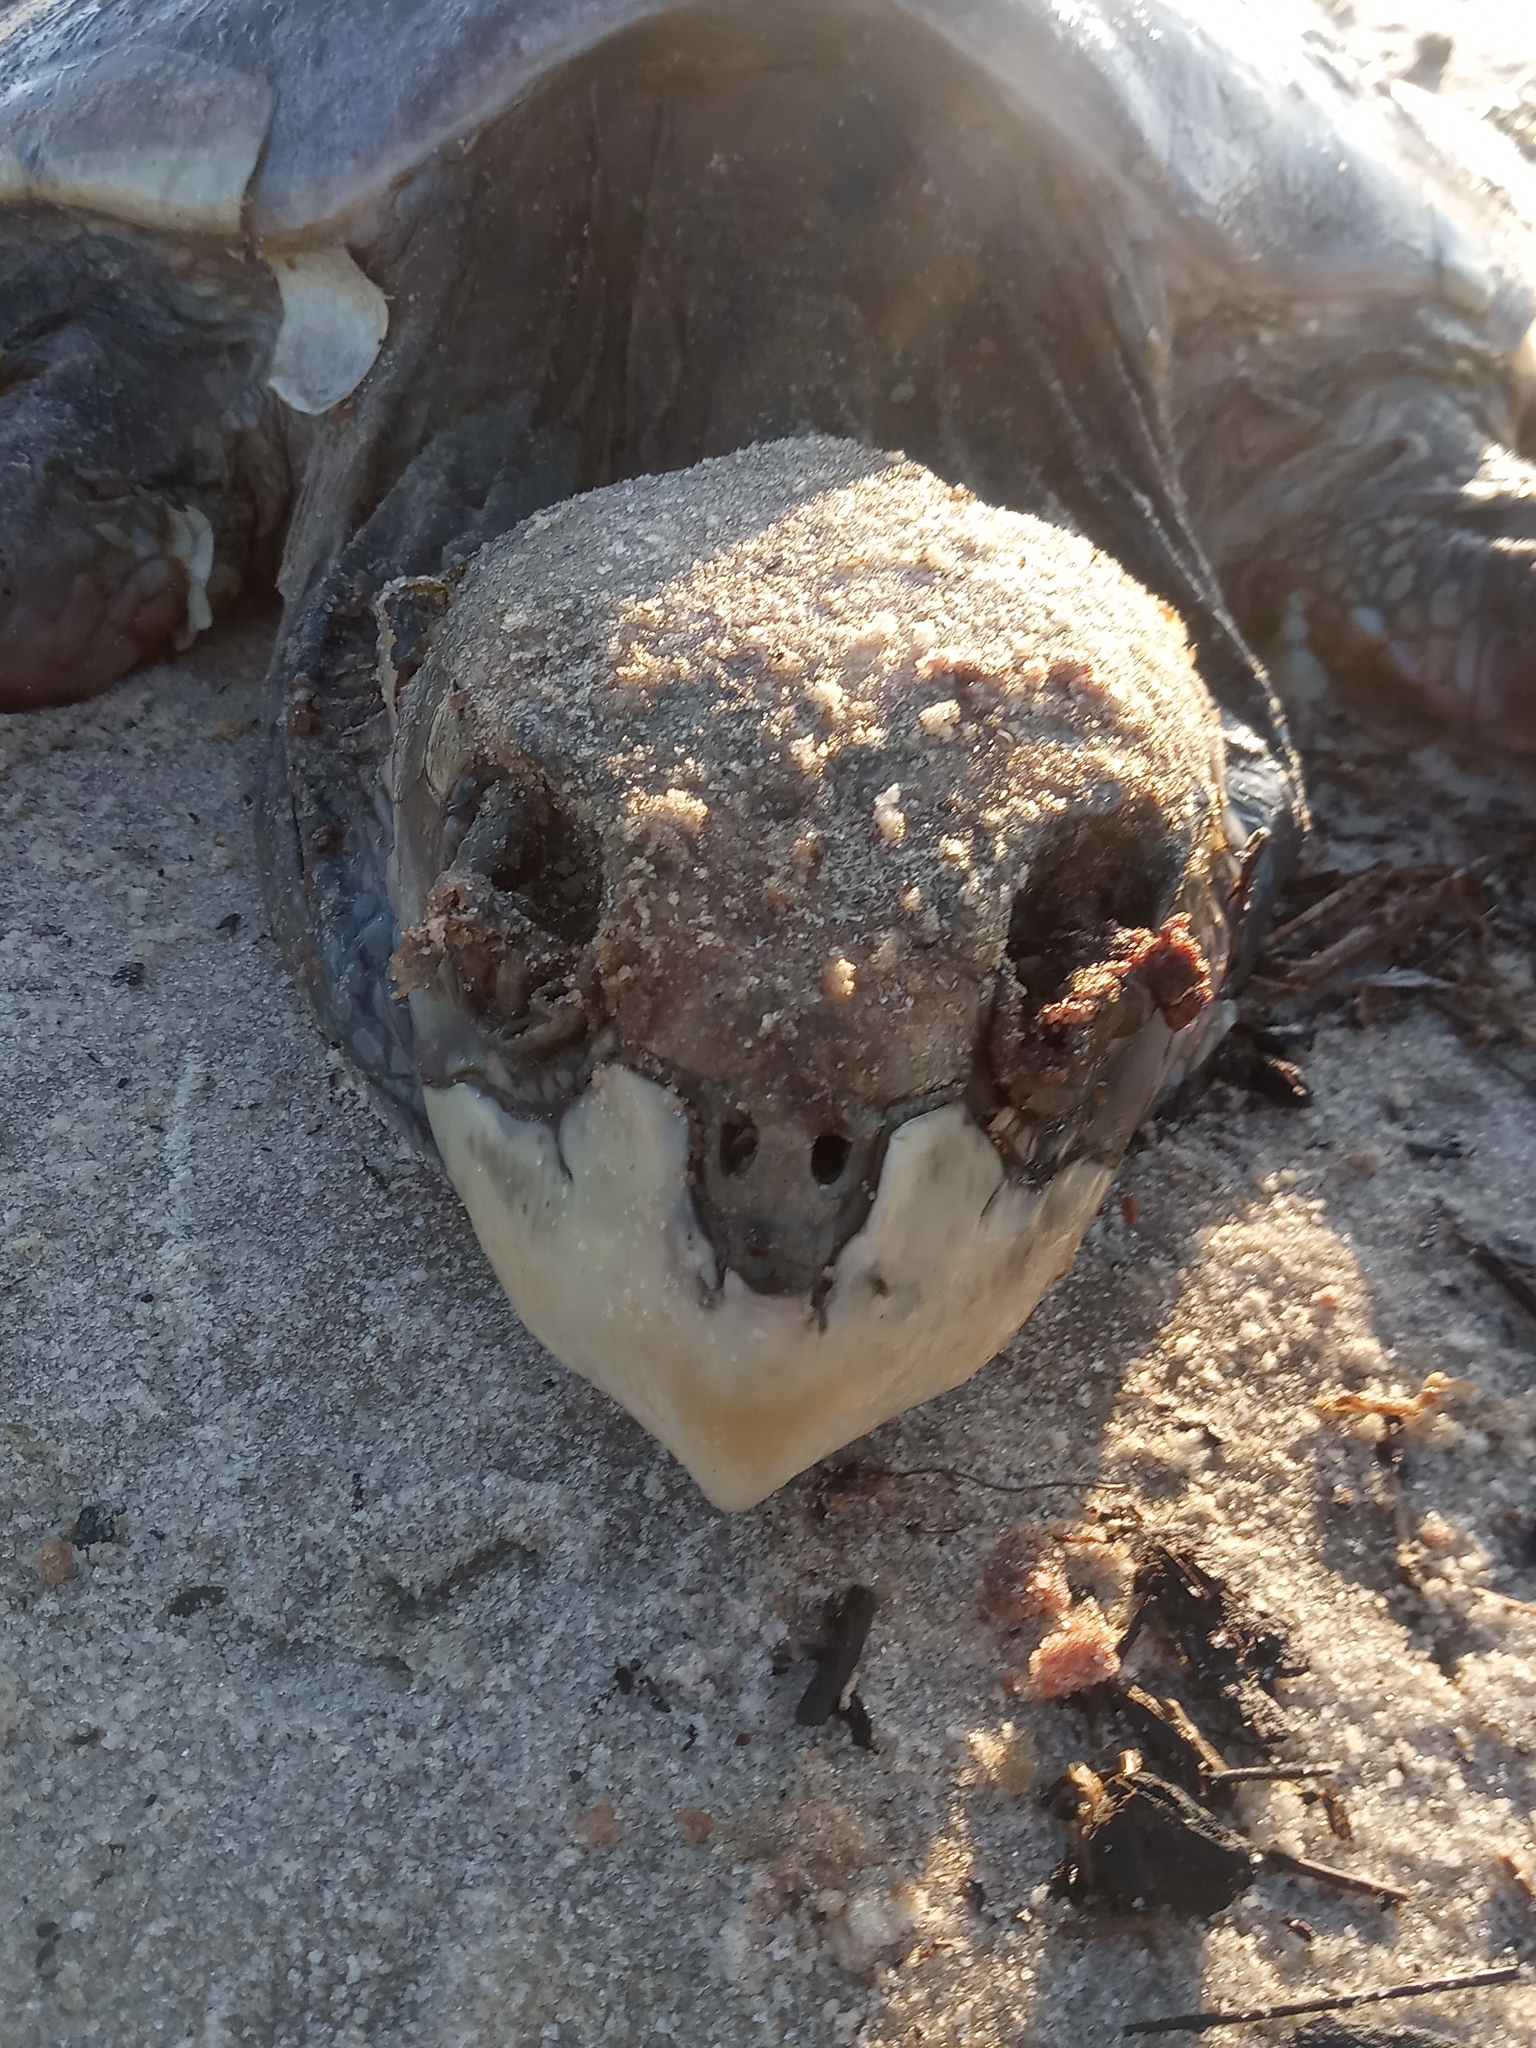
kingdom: Animalia
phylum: Chordata
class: Testudines
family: Cheloniidae
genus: Lepidochelys
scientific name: Lepidochelys kempii
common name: Kemp's ridley turtle
